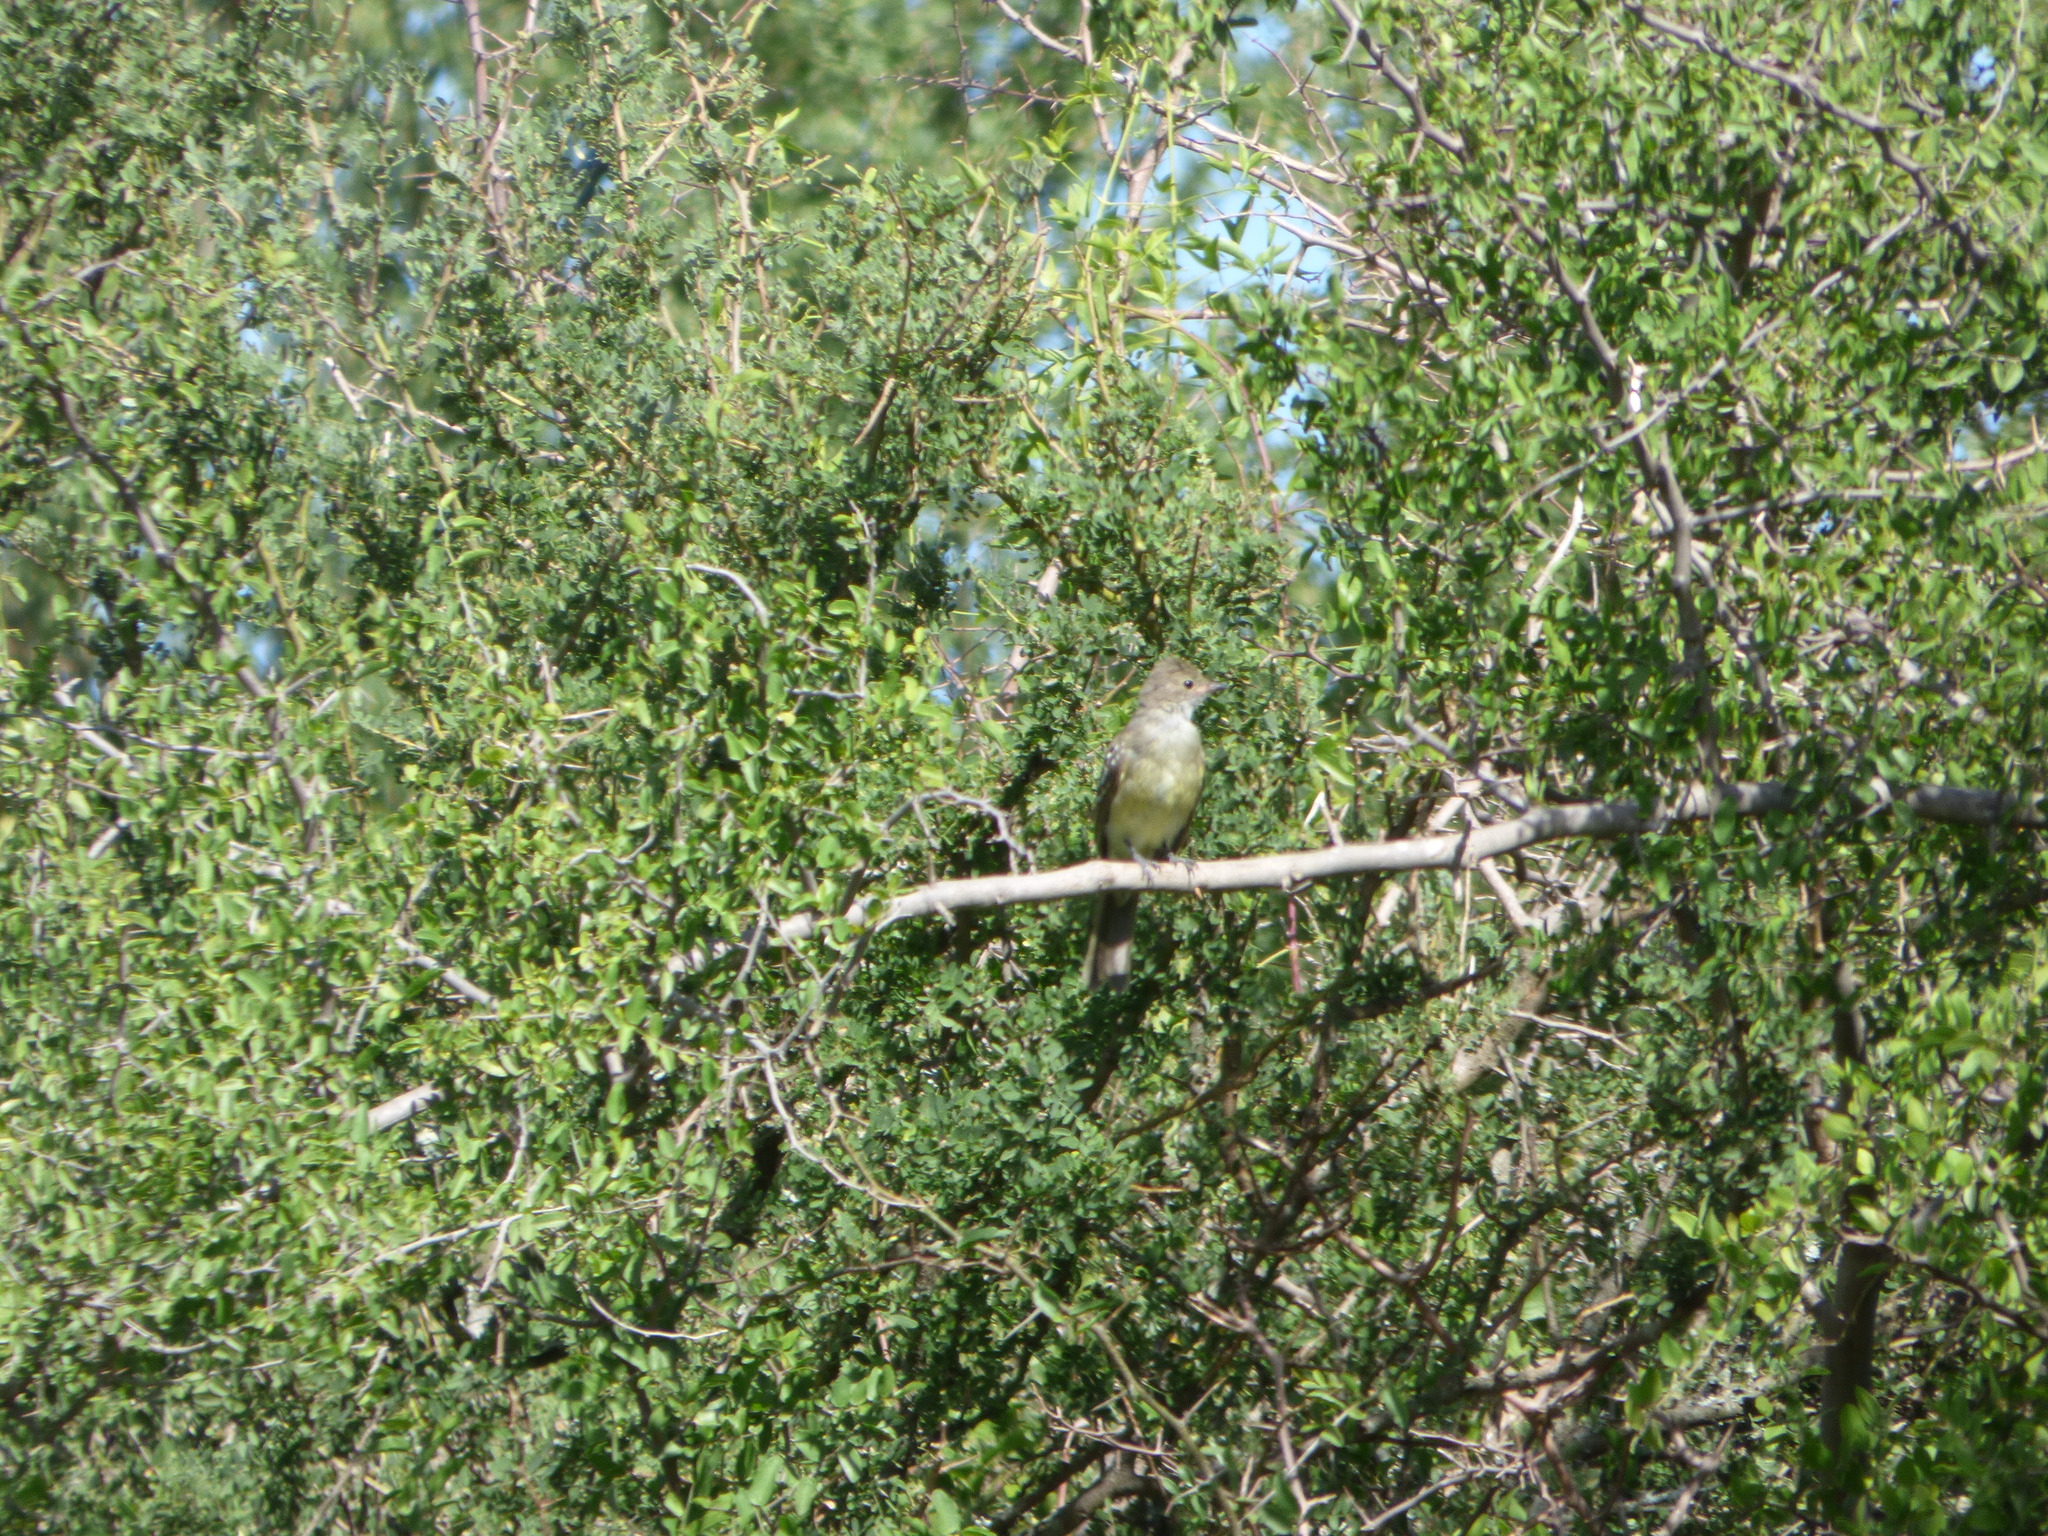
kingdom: Animalia
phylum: Chordata
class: Aves
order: Passeriformes
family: Tyrannidae
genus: Elaenia
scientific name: Elaenia spectabilis
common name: Large elaenia
